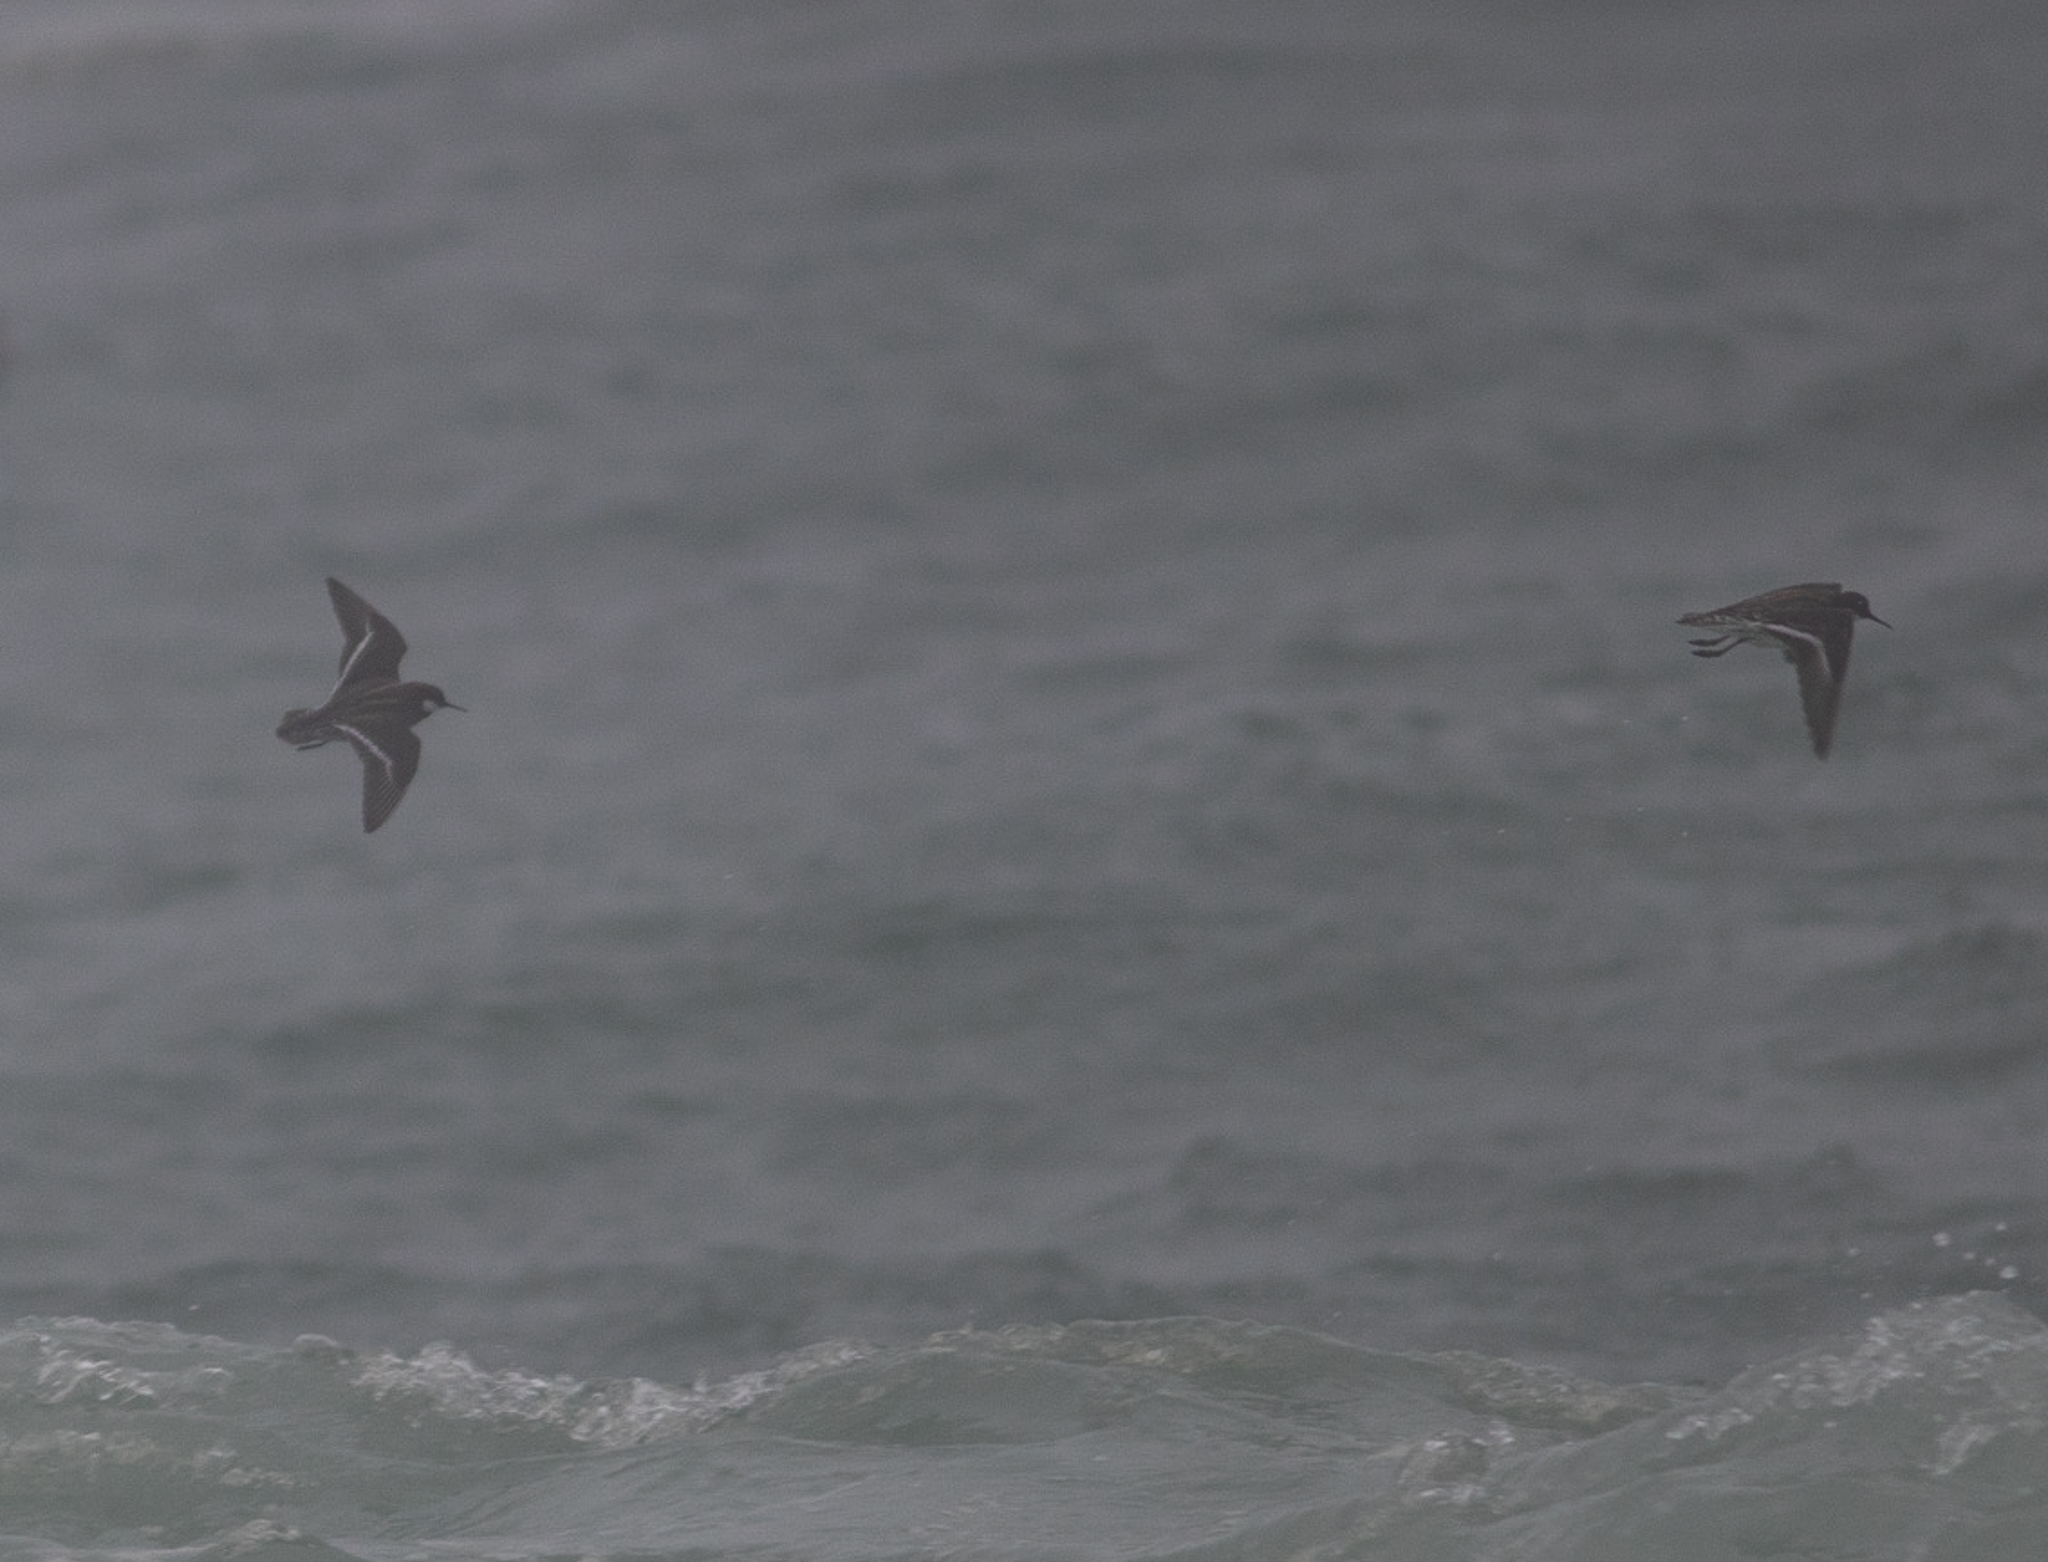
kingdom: Animalia
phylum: Chordata
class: Aves
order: Charadriiformes
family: Scolopacidae
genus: Phalaropus
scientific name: Phalaropus lobatus
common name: Red-necked phalarope
